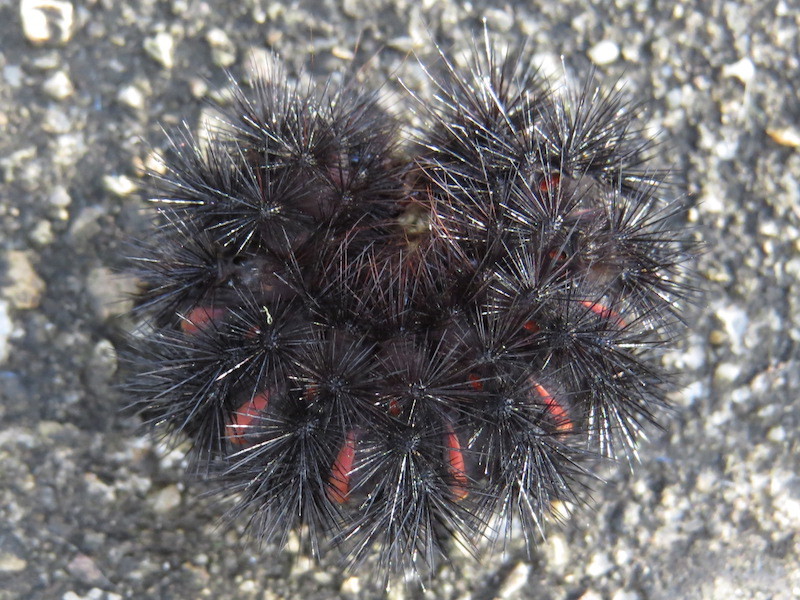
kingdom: Animalia
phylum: Arthropoda
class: Insecta
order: Lepidoptera
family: Erebidae
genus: Hypercompe
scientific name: Hypercompe scribonia
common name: Giant leopard moth
